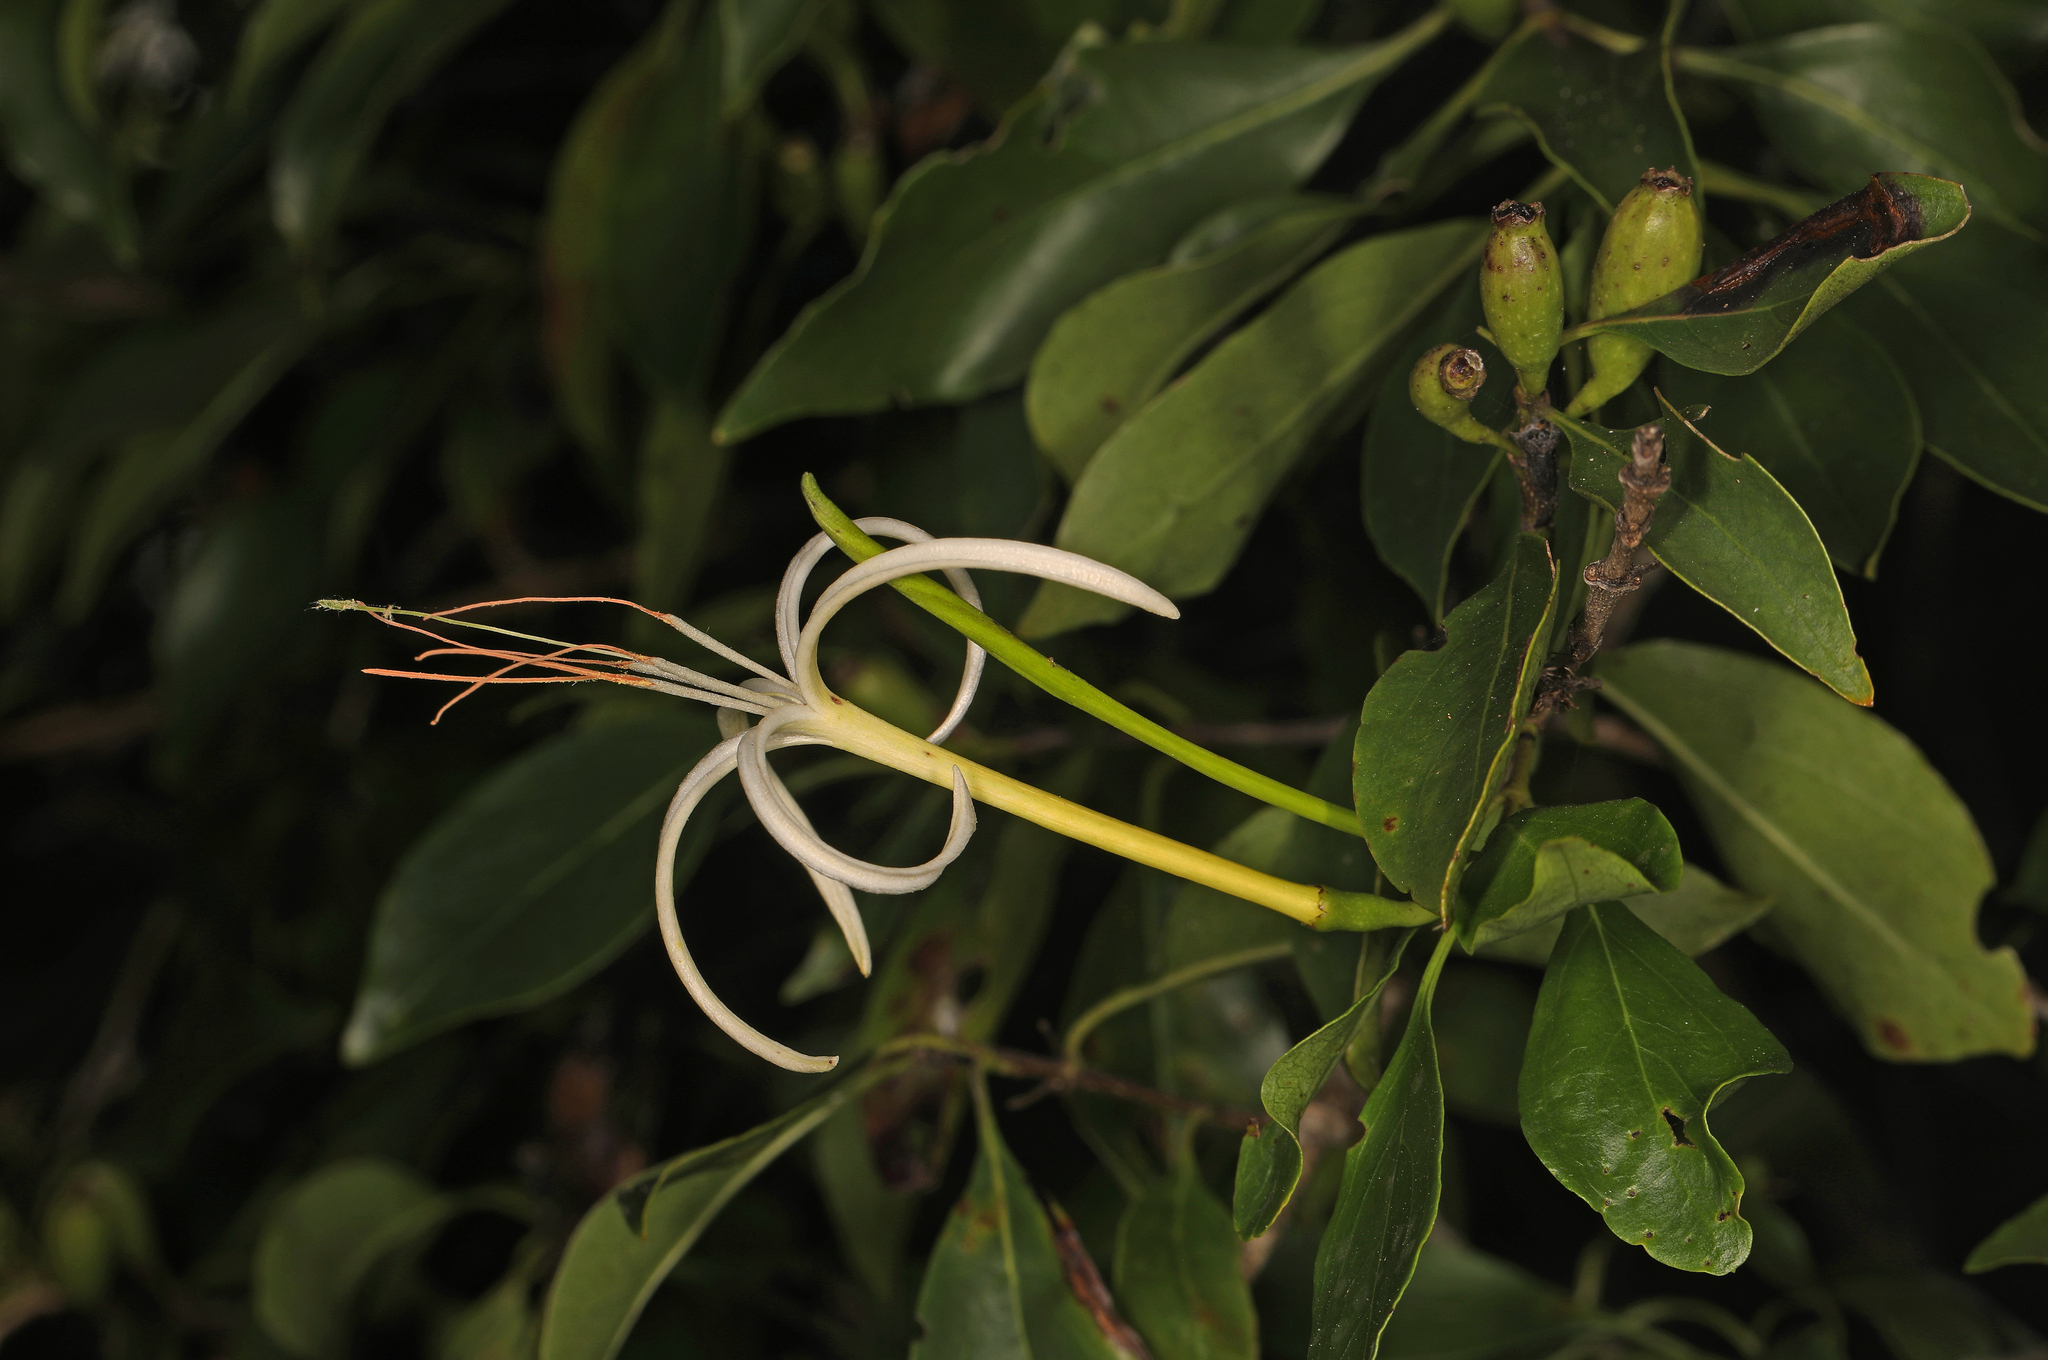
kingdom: Plantae
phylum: Tracheophyta
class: Magnoliopsida
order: Gentianales
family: Rubiaceae
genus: Exostema
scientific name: Exostema caribaeum
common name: Princewood
